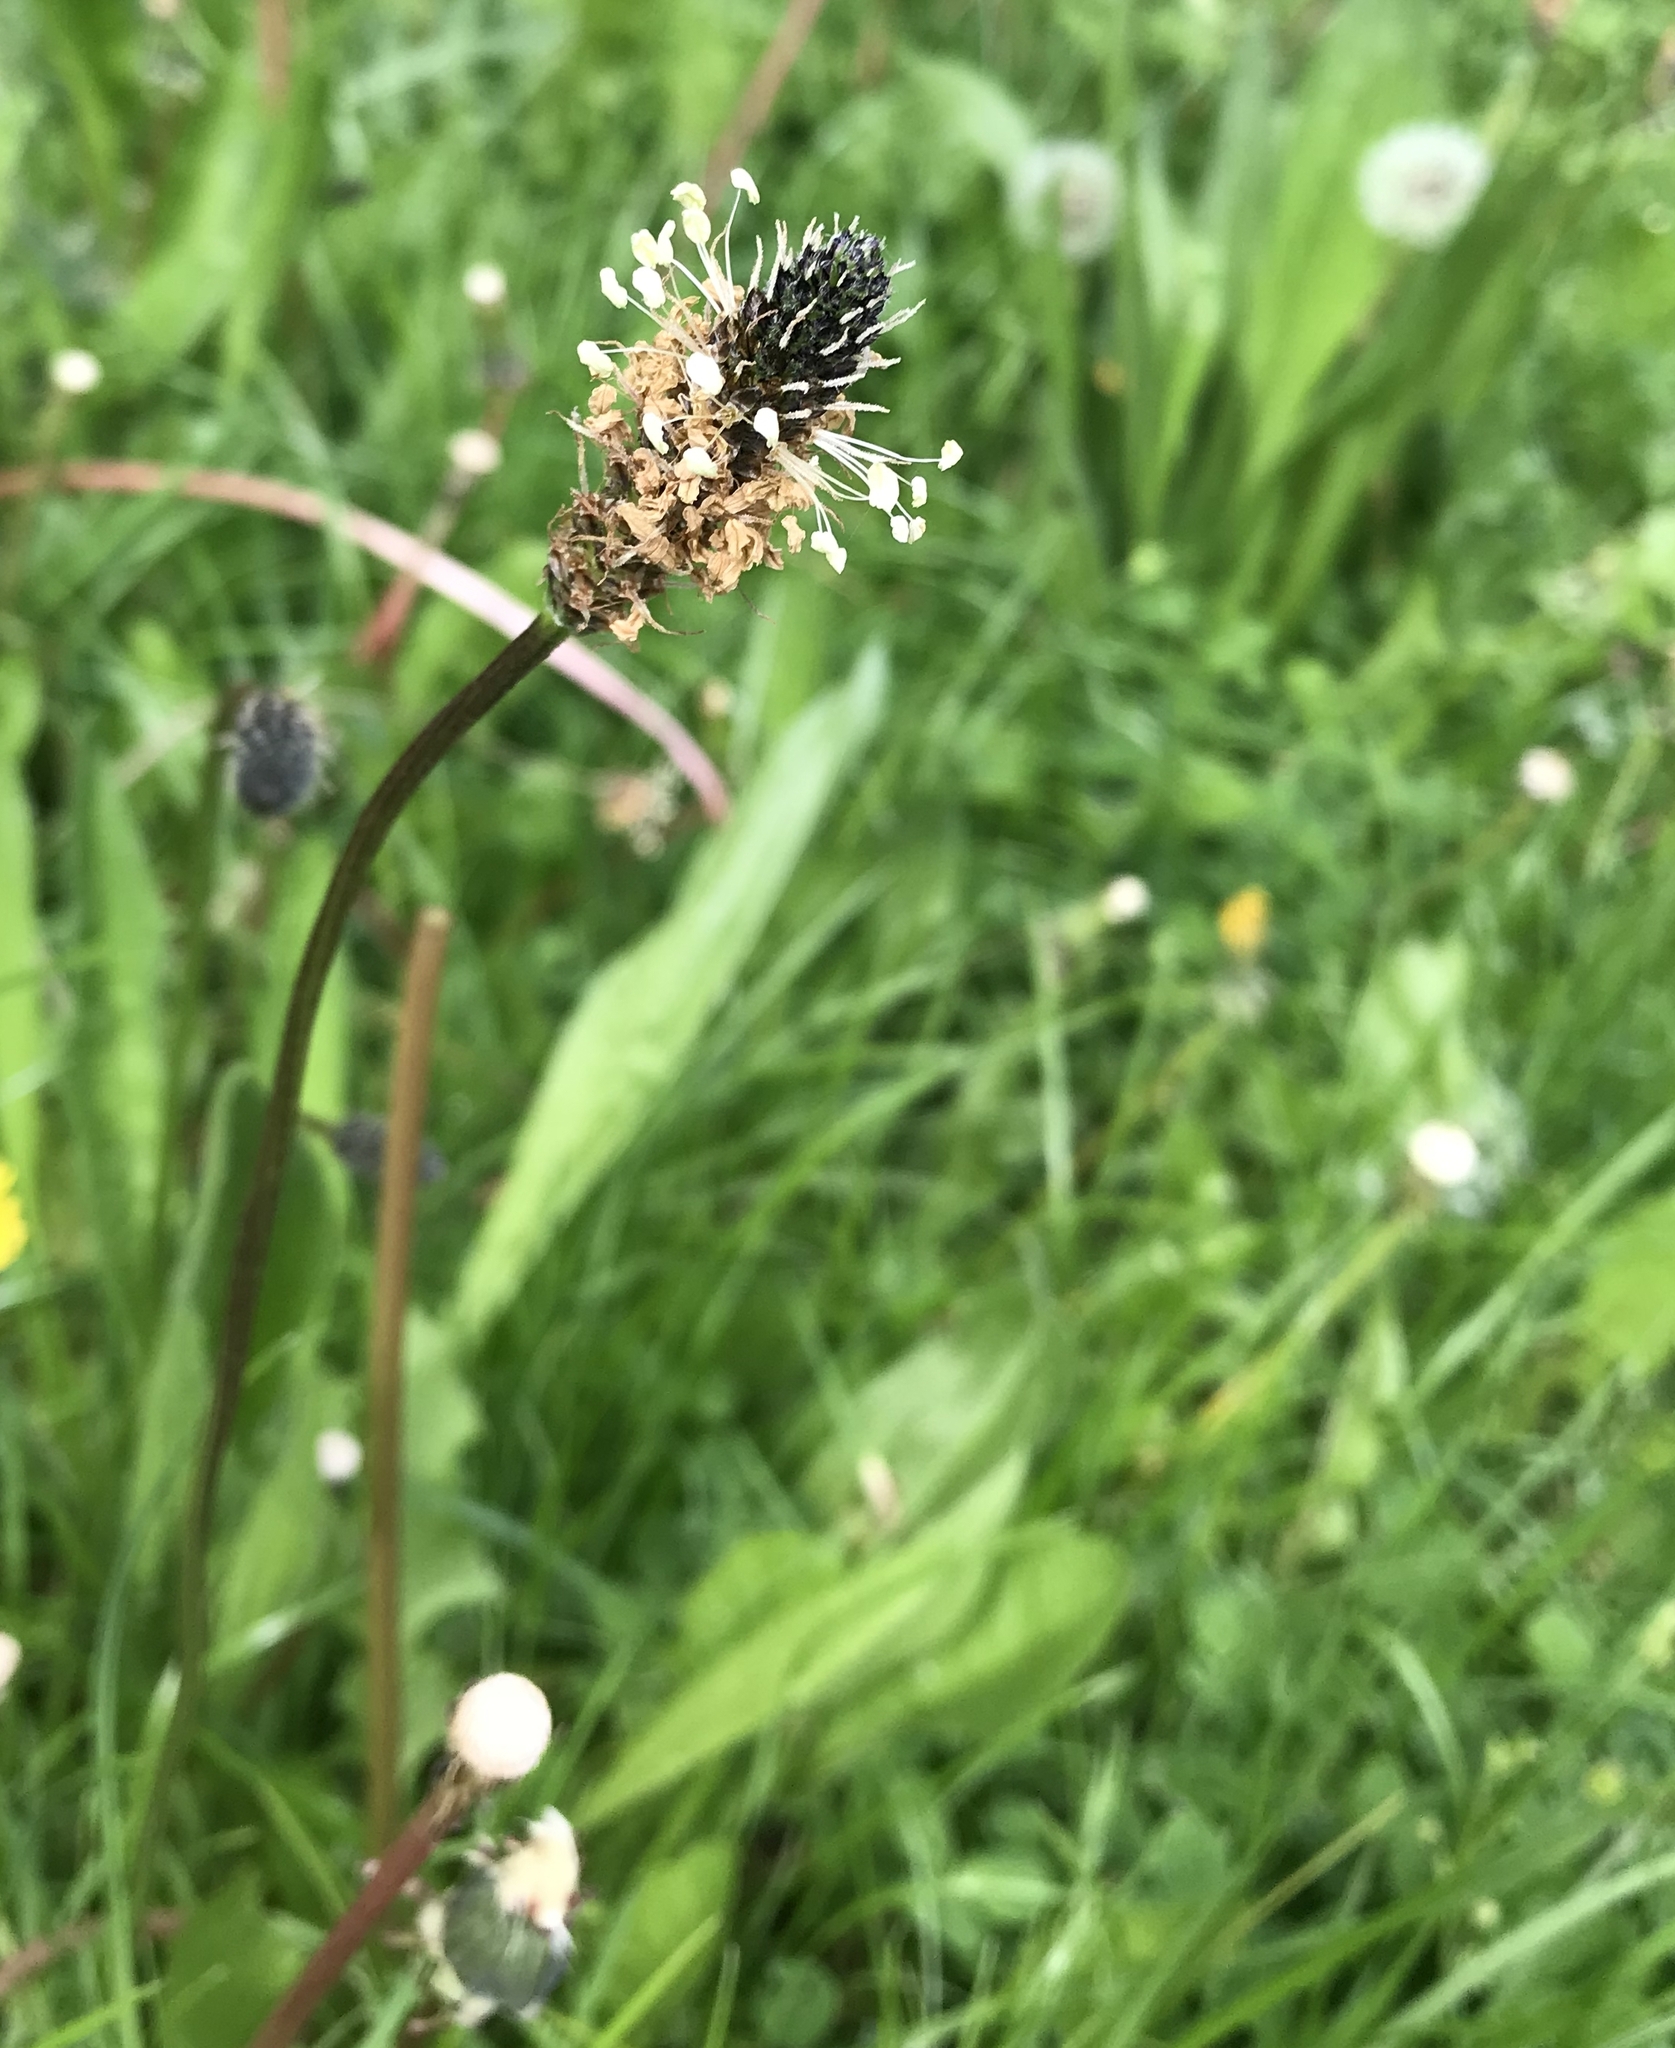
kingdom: Plantae
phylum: Tracheophyta
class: Magnoliopsida
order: Lamiales
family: Plantaginaceae
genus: Plantago
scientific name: Plantago lanceolata
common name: Ribwort plantain
